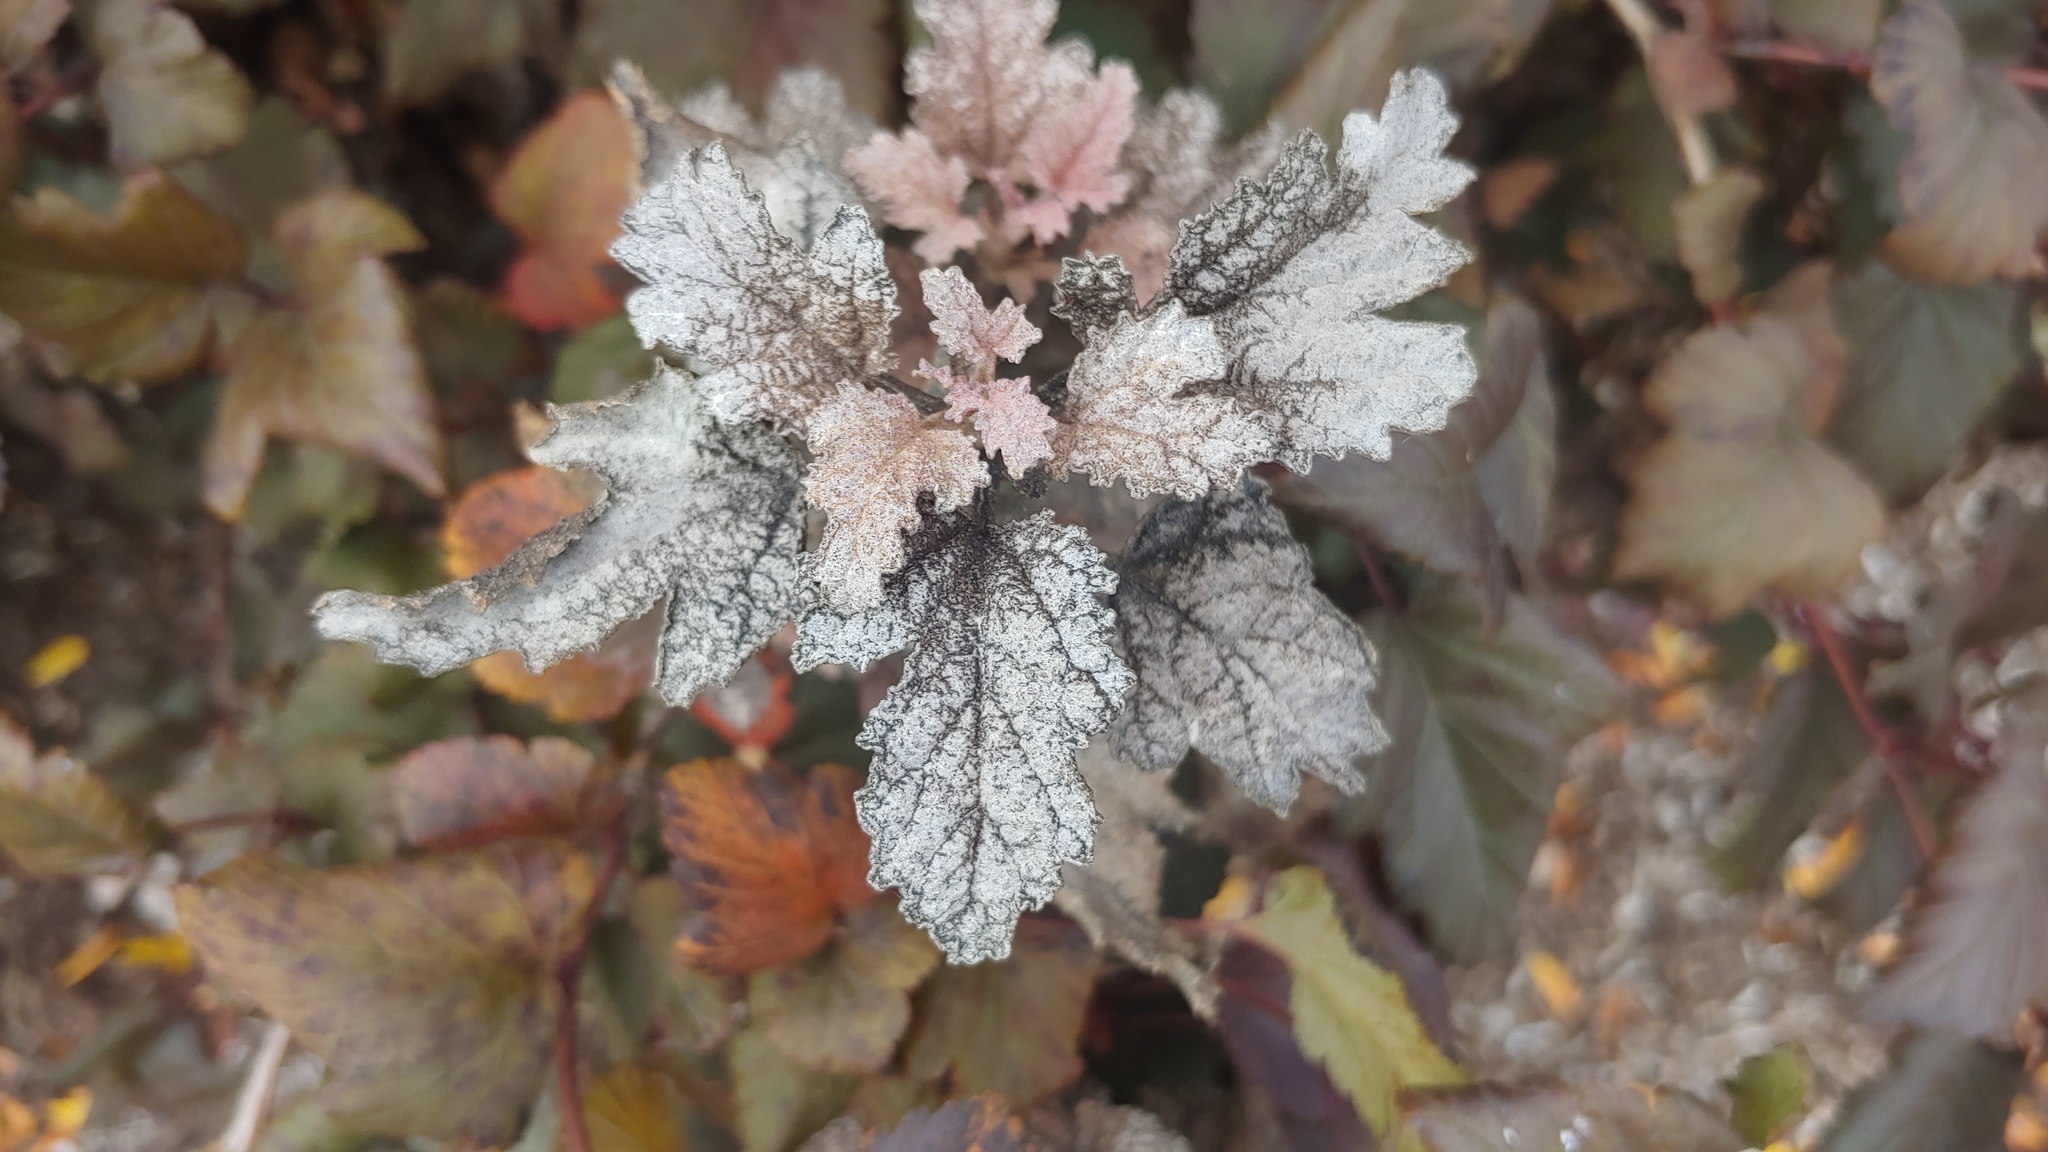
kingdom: Fungi
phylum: Ascomycota
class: Leotiomycetes
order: Helotiales
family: Erysiphaceae
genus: Podosphaera
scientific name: Podosphaera physocarpi
